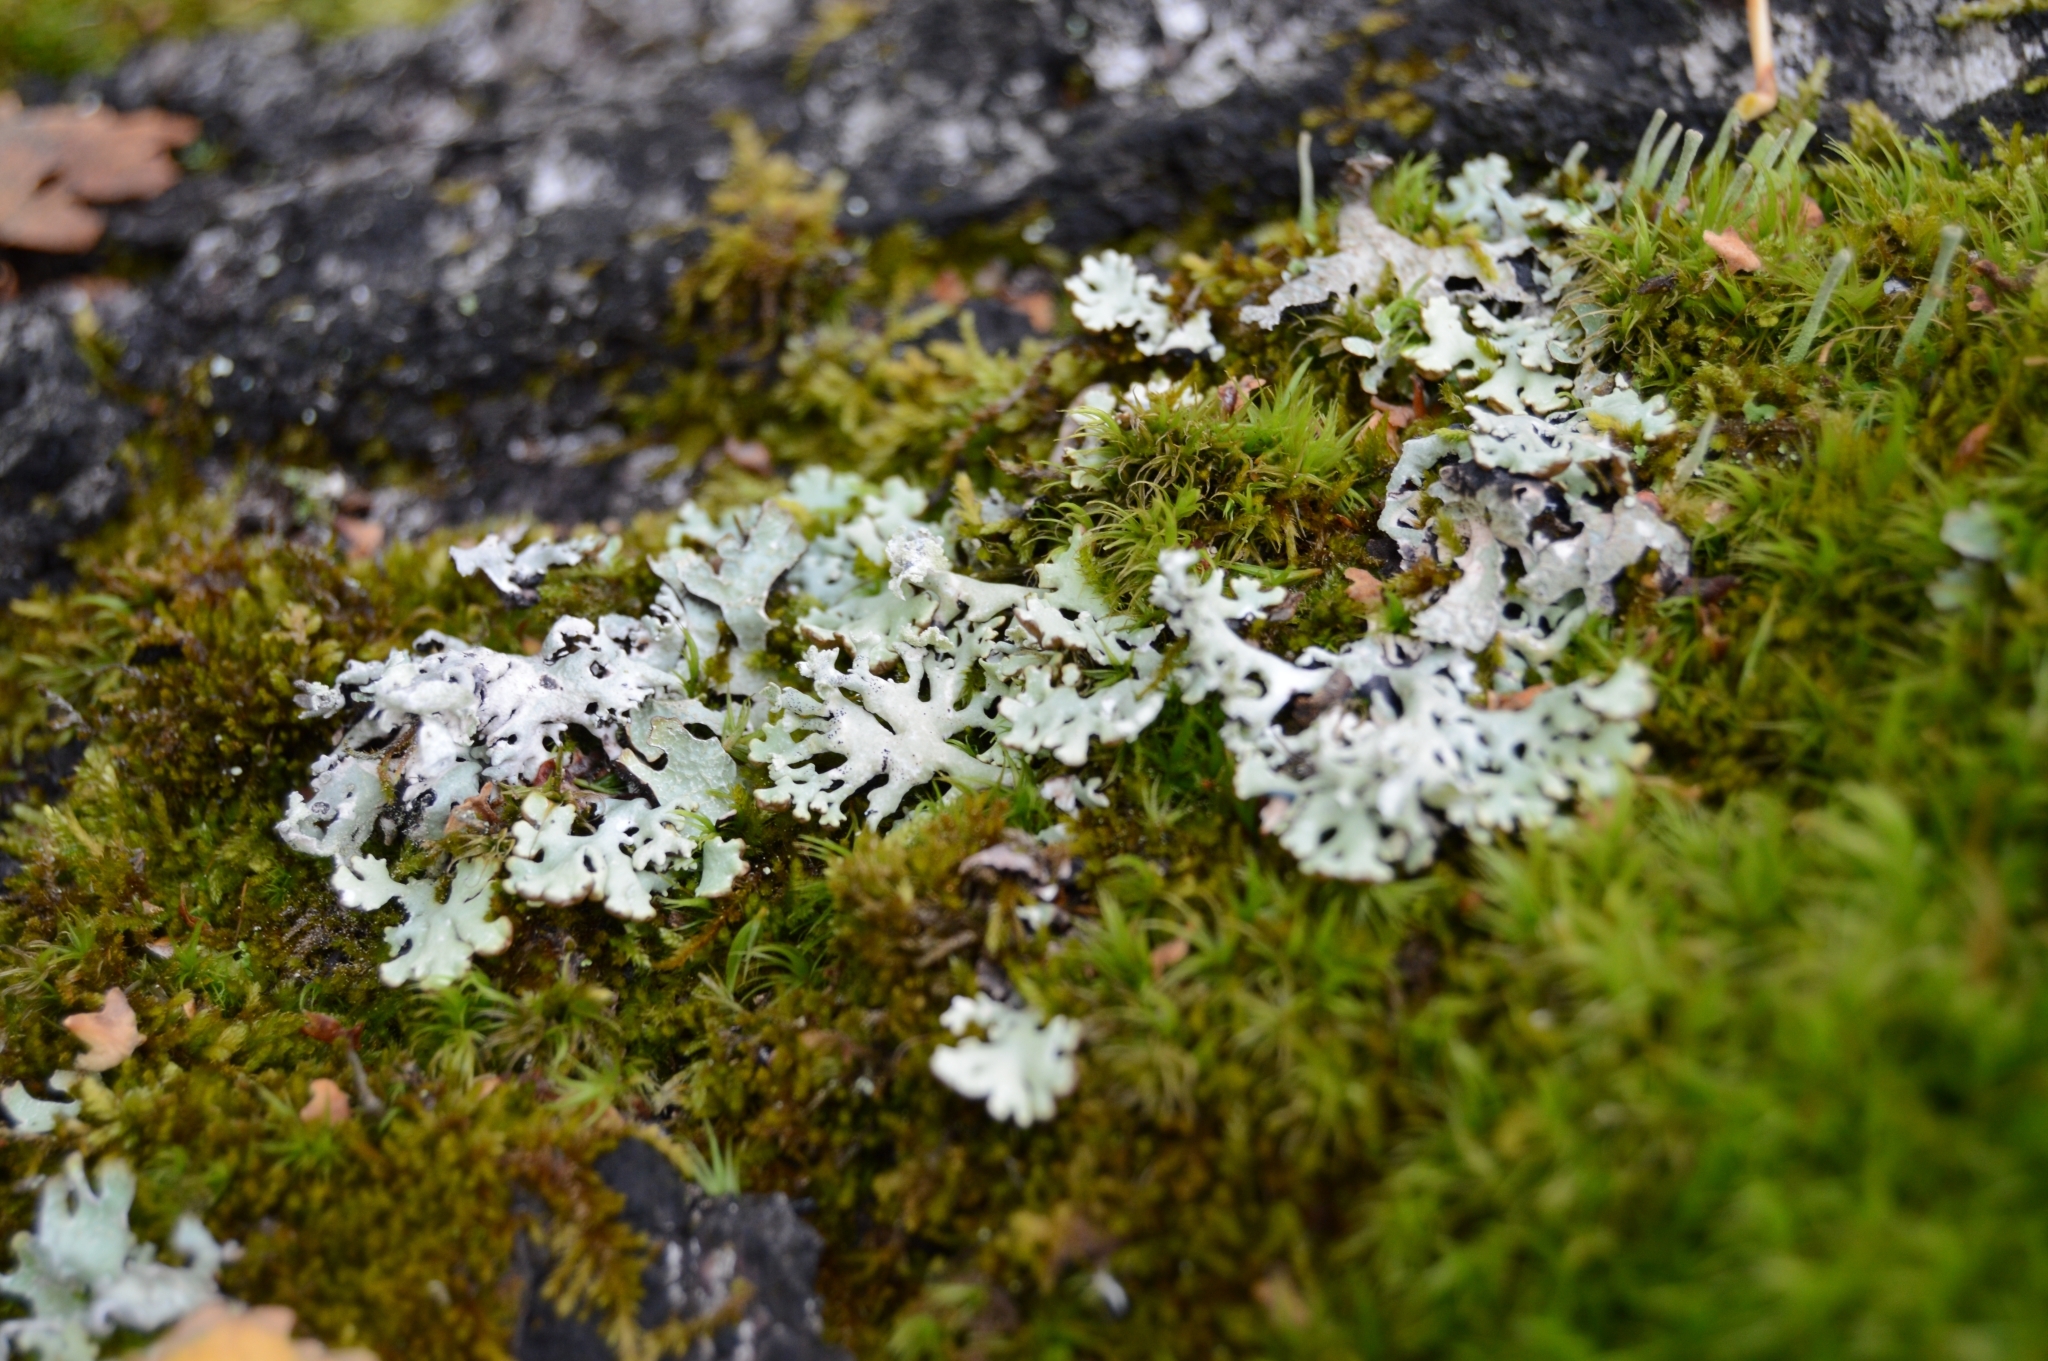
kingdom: Fungi
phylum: Ascomycota
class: Lecanoromycetes
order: Lecanorales
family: Parmeliaceae
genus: Hypogymnia
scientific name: Hypogymnia physodes
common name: Dark crottle
